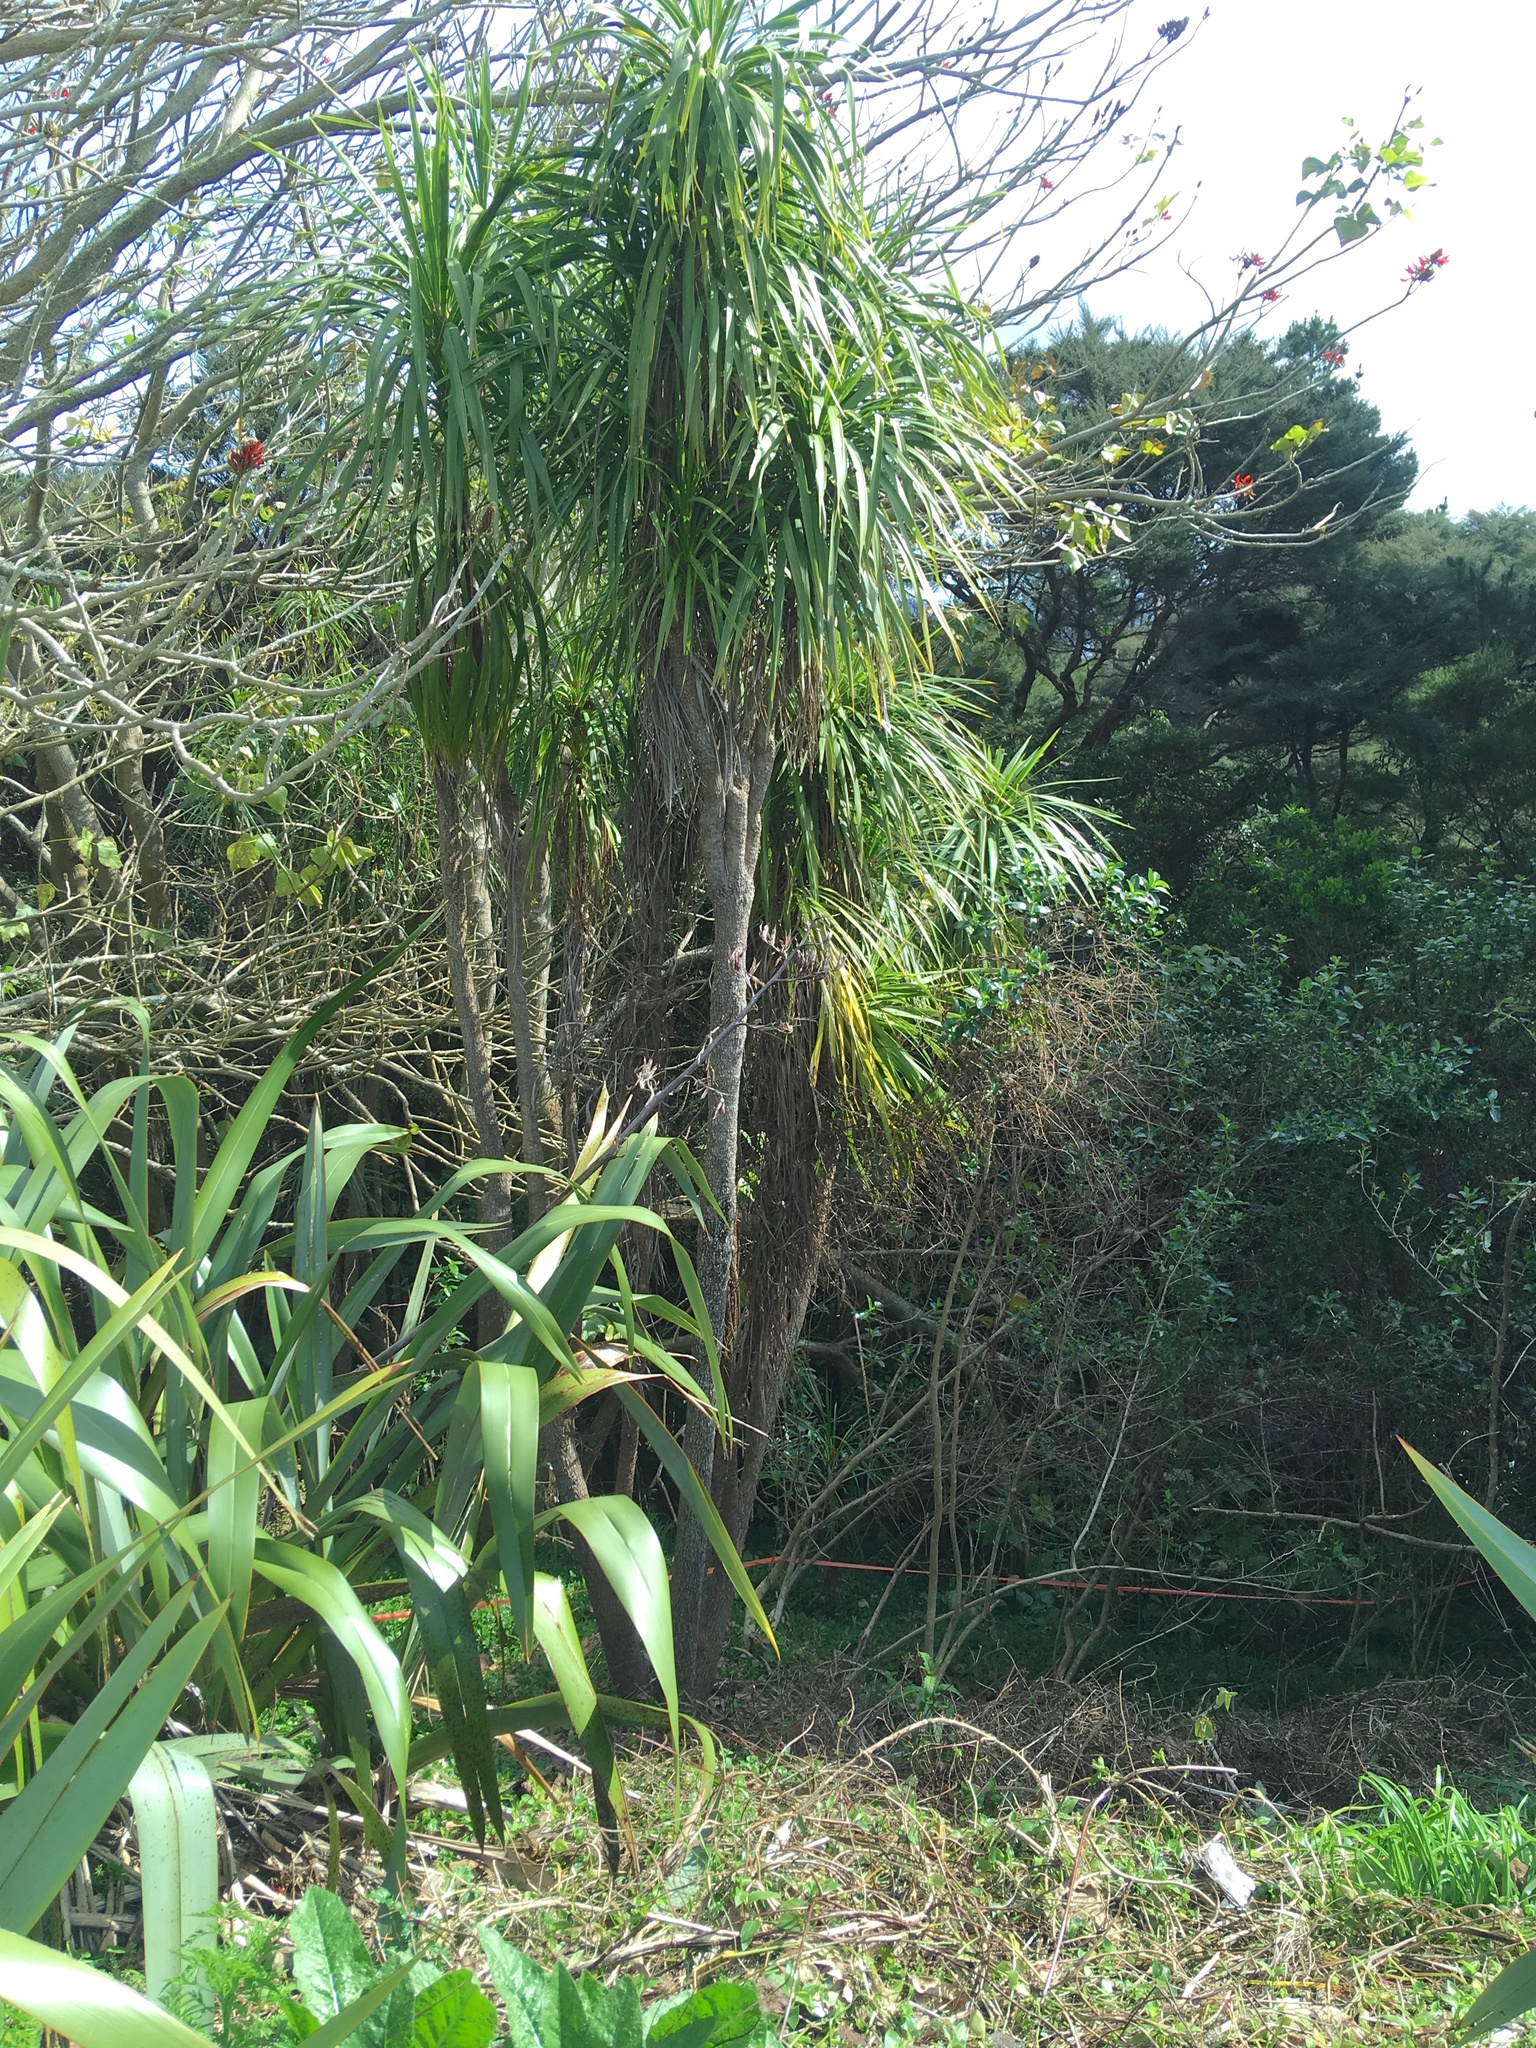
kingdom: Plantae
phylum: Tracheophyta
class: Liliopsida
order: Asparagales
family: Asparagaceae
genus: Cordyline
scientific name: Cordyline australis
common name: Cabbage-palm
